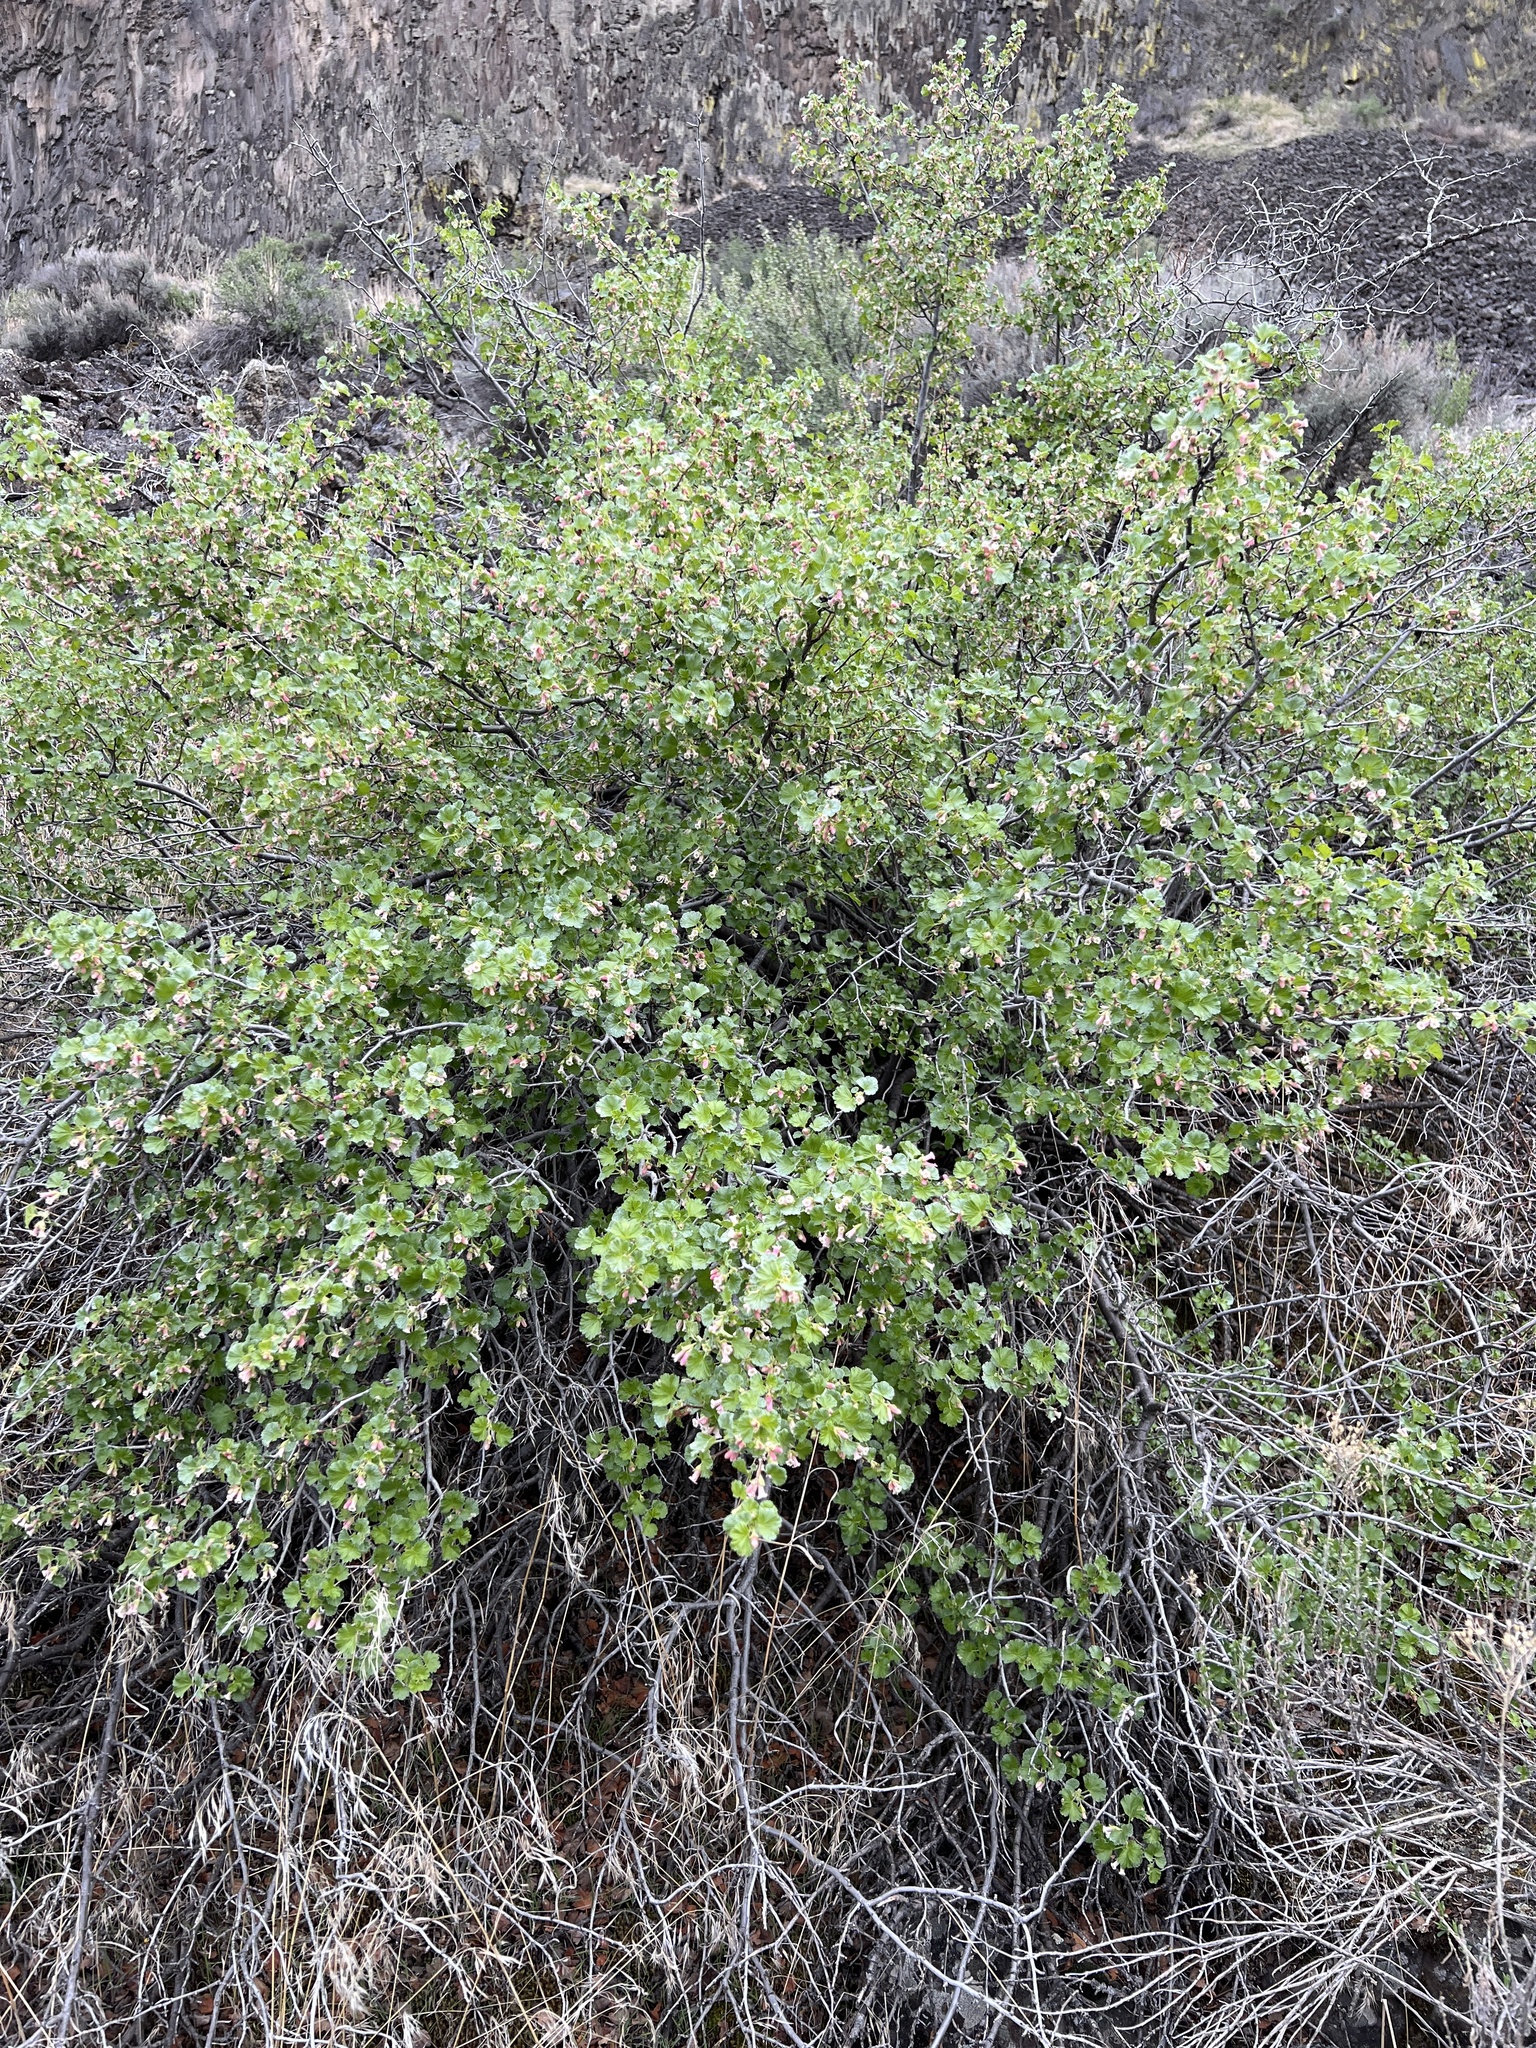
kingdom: Plantae
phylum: Tracheophyta
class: Magnoliopsida
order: Saxifragales
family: Grossulariaceae
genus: Ribes
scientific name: Ribes cereum
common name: Wax currant
